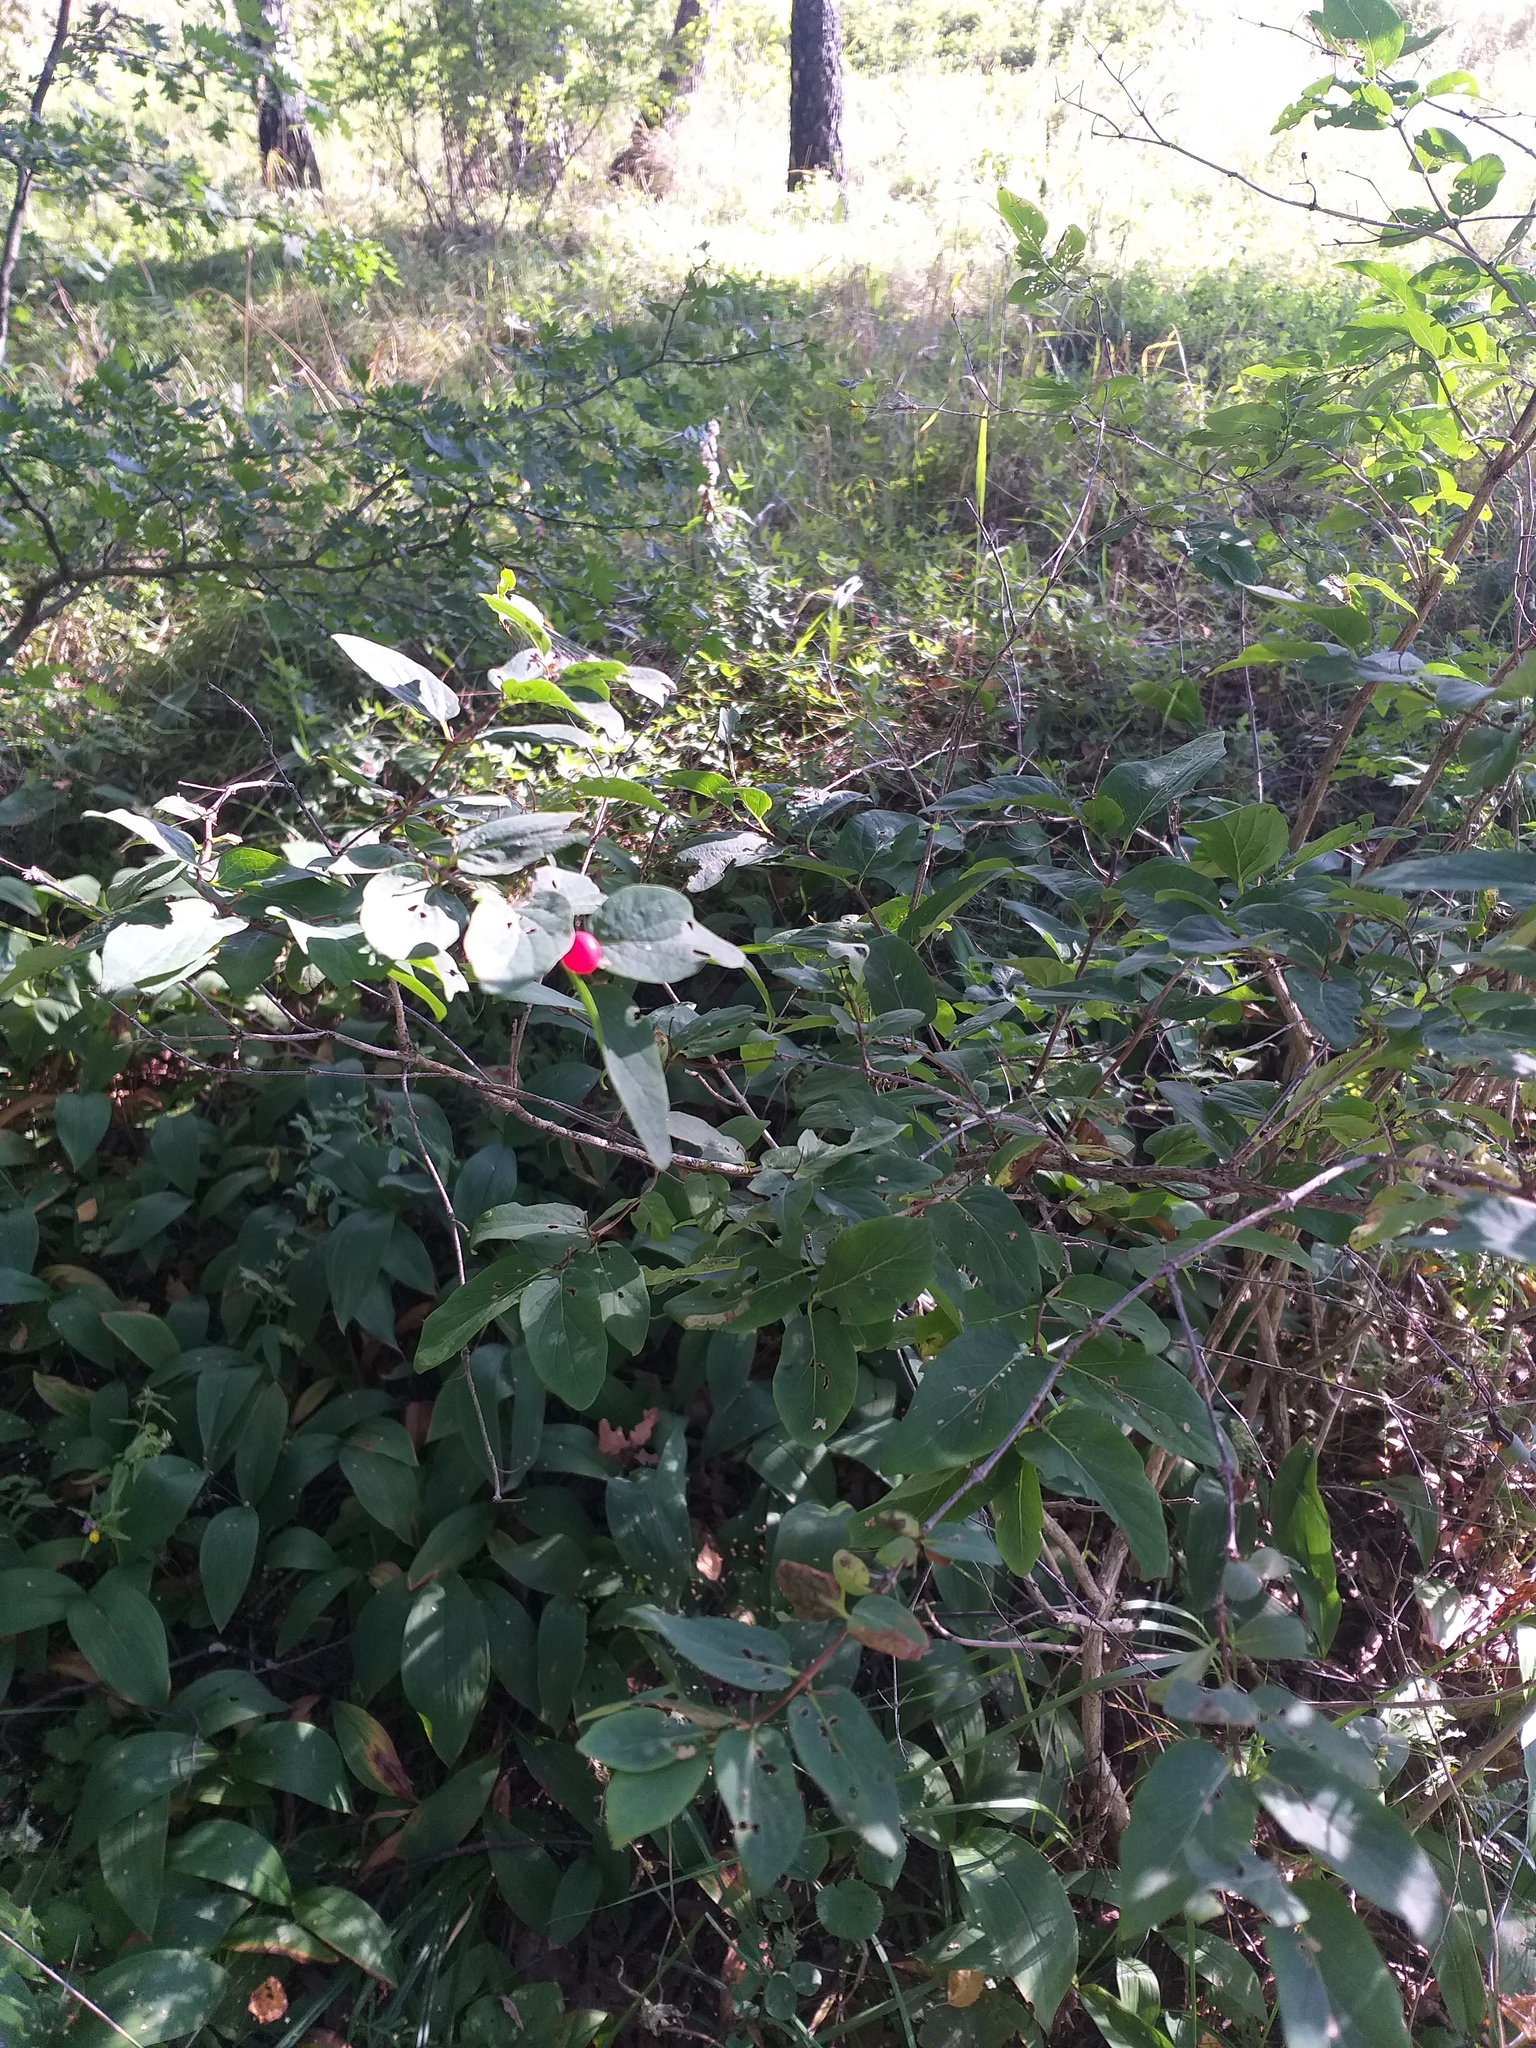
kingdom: Plantae
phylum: Tracheophyta
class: Magnoliopsida
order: Dipsacales
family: Caprifoliaceae
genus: Lonicera
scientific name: Lonicera tatarica
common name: Tatarian honeysuckle
